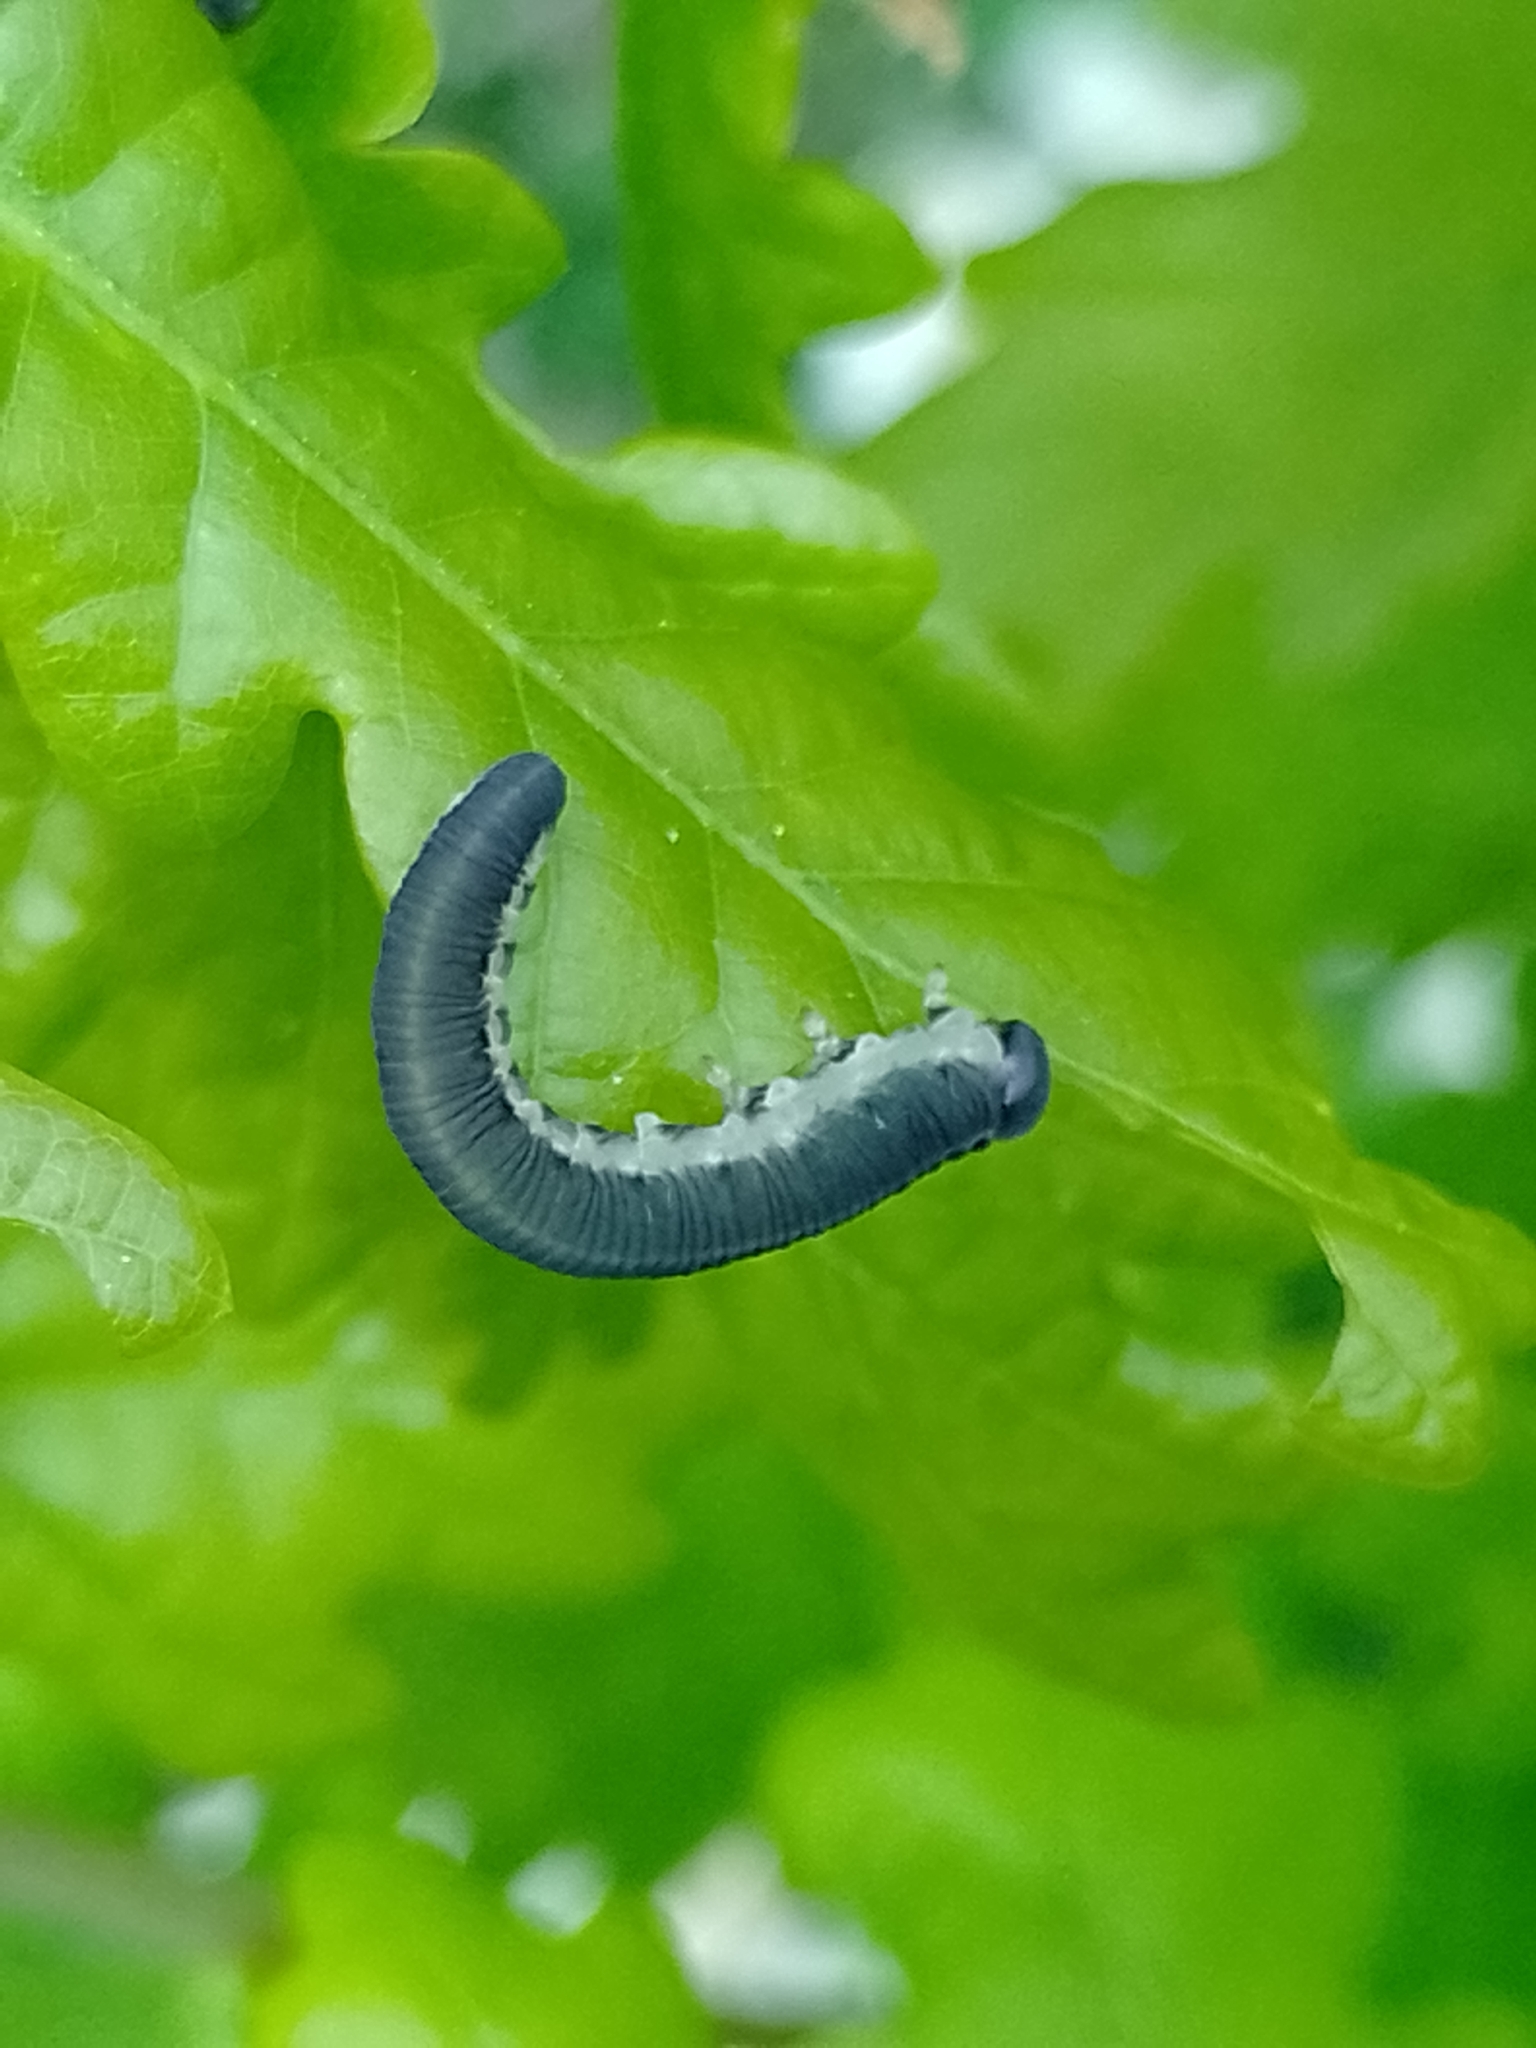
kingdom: Animalia
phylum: Arthropoda
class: Insecta
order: Hymenoptera
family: Tenthredinidae
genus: Apethymus
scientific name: Apethymus serotinus
